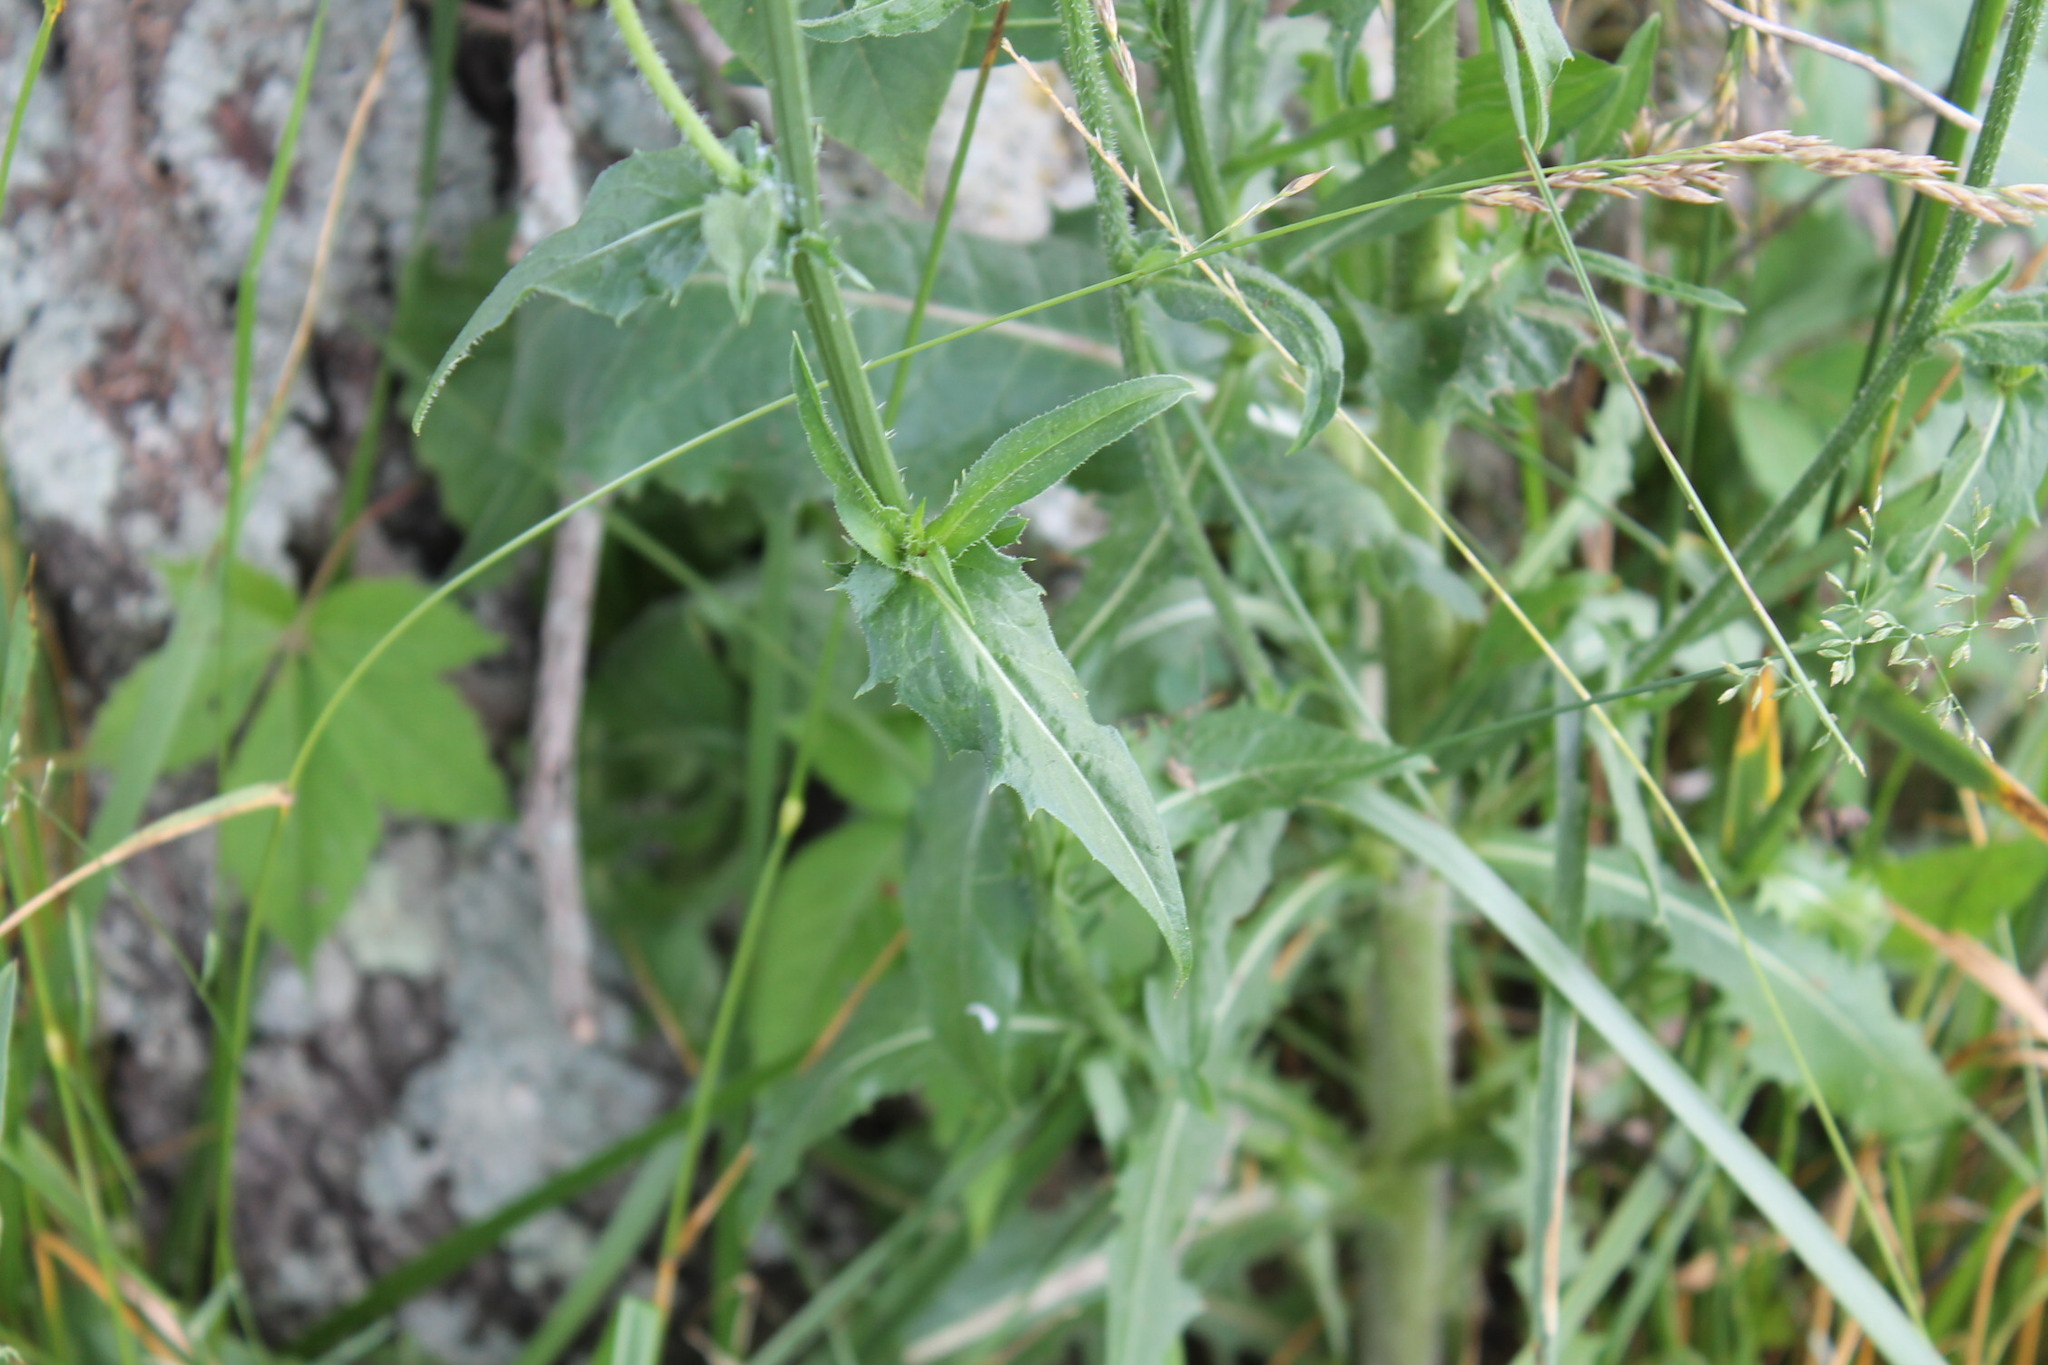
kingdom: Plantae
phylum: Tracheophyta
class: Magnoliopsida
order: Asterales
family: Asteraceae
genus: Cichorium
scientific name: Cichorium intybus
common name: Chicory
